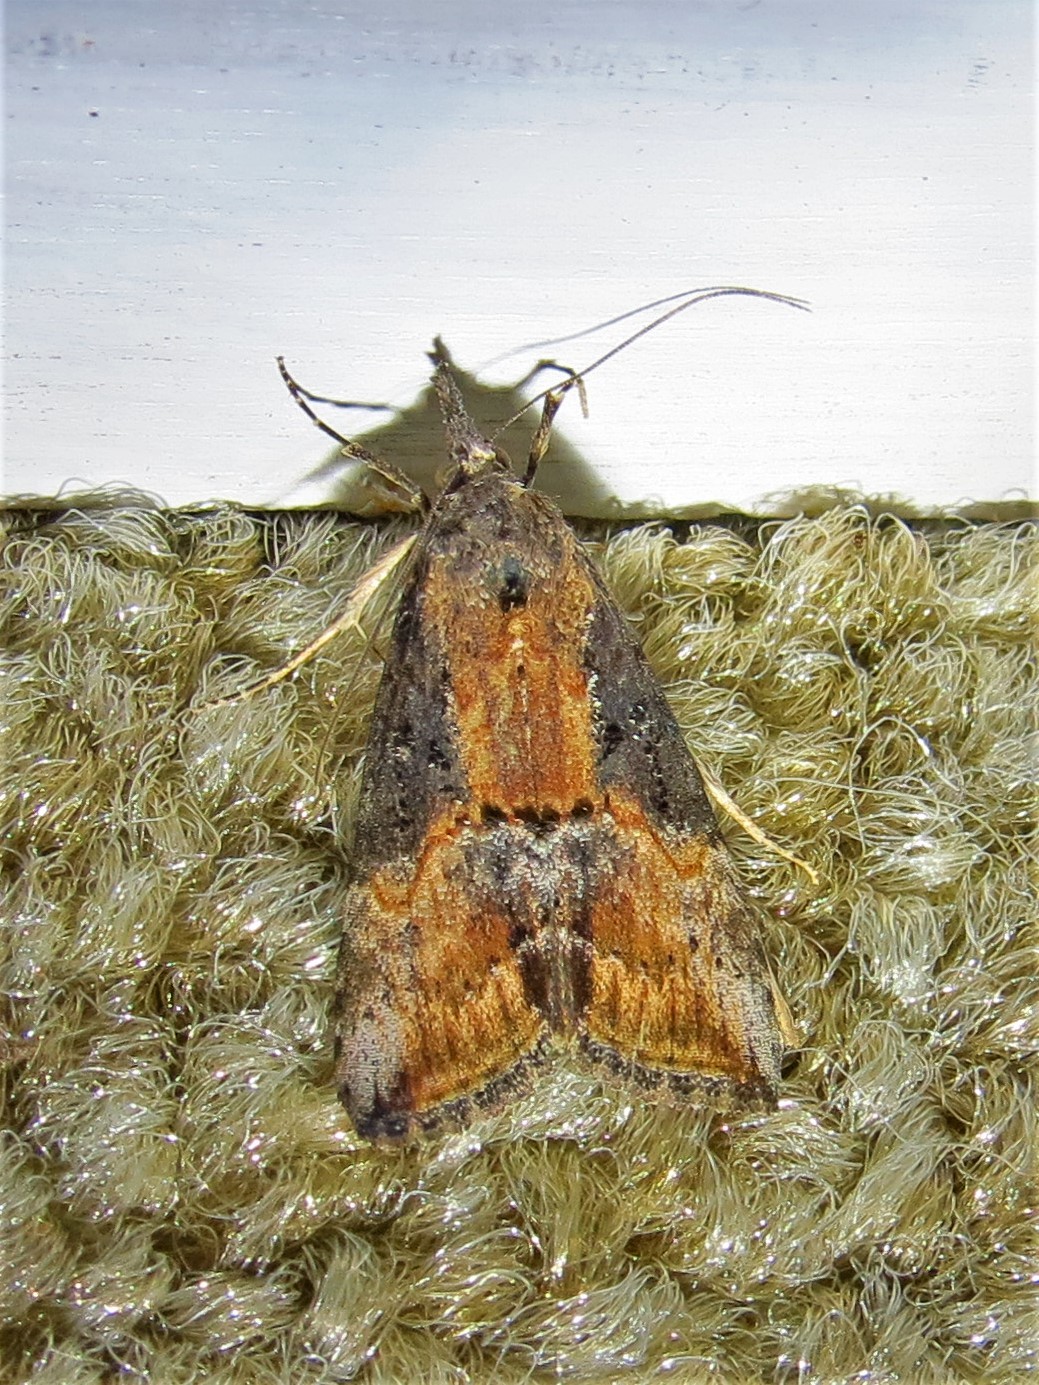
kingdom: Animalia
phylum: Arthropoda
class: Insecta
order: Lepidoptera
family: Erebidae
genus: Hypena
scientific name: Hypena scabra
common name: Green cloverworm
